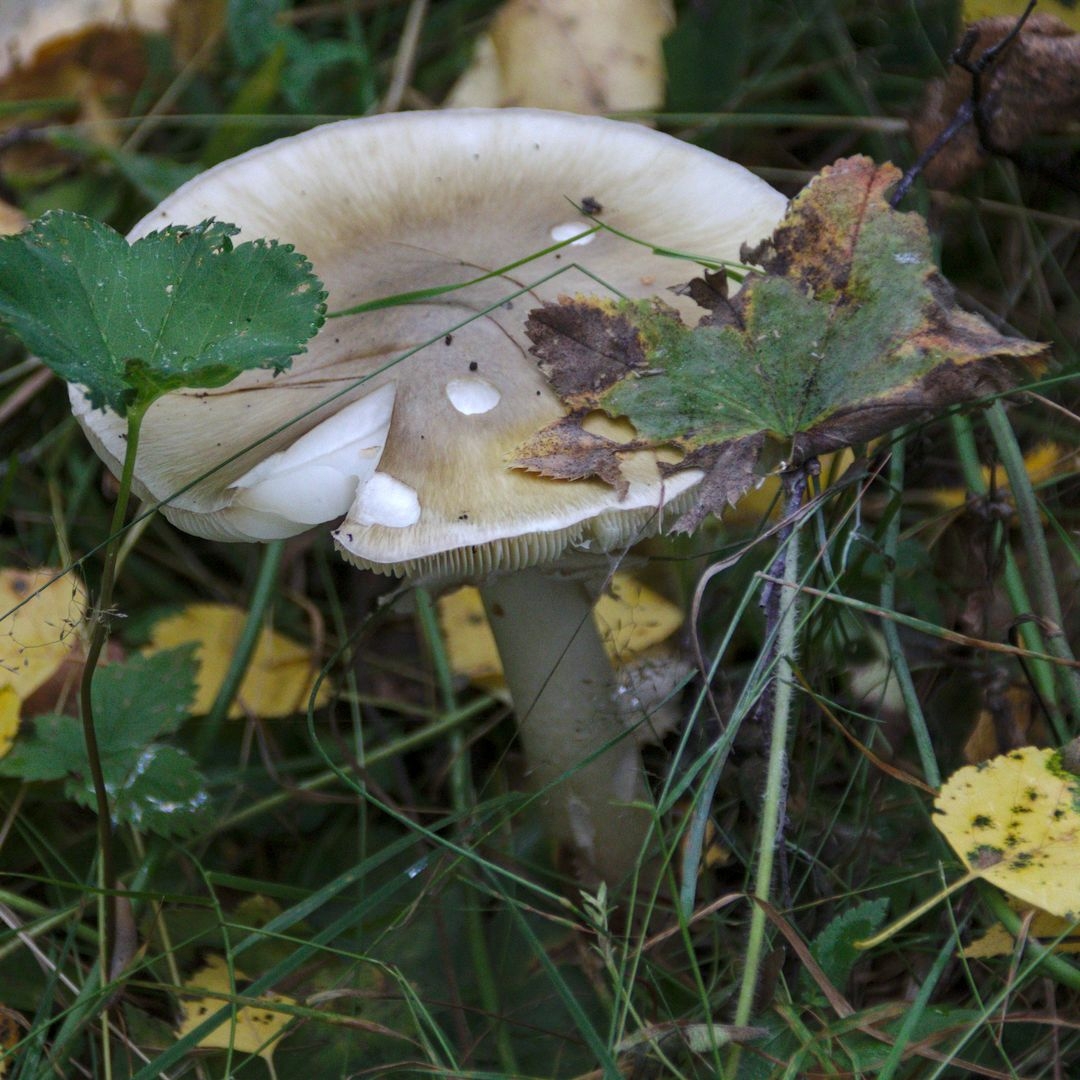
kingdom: Fungi
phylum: Basidiomycota
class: Agaricomycetes
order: Agaricales
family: Amanitaceae
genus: Amanita
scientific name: Amanita phalloides
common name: Death cap
